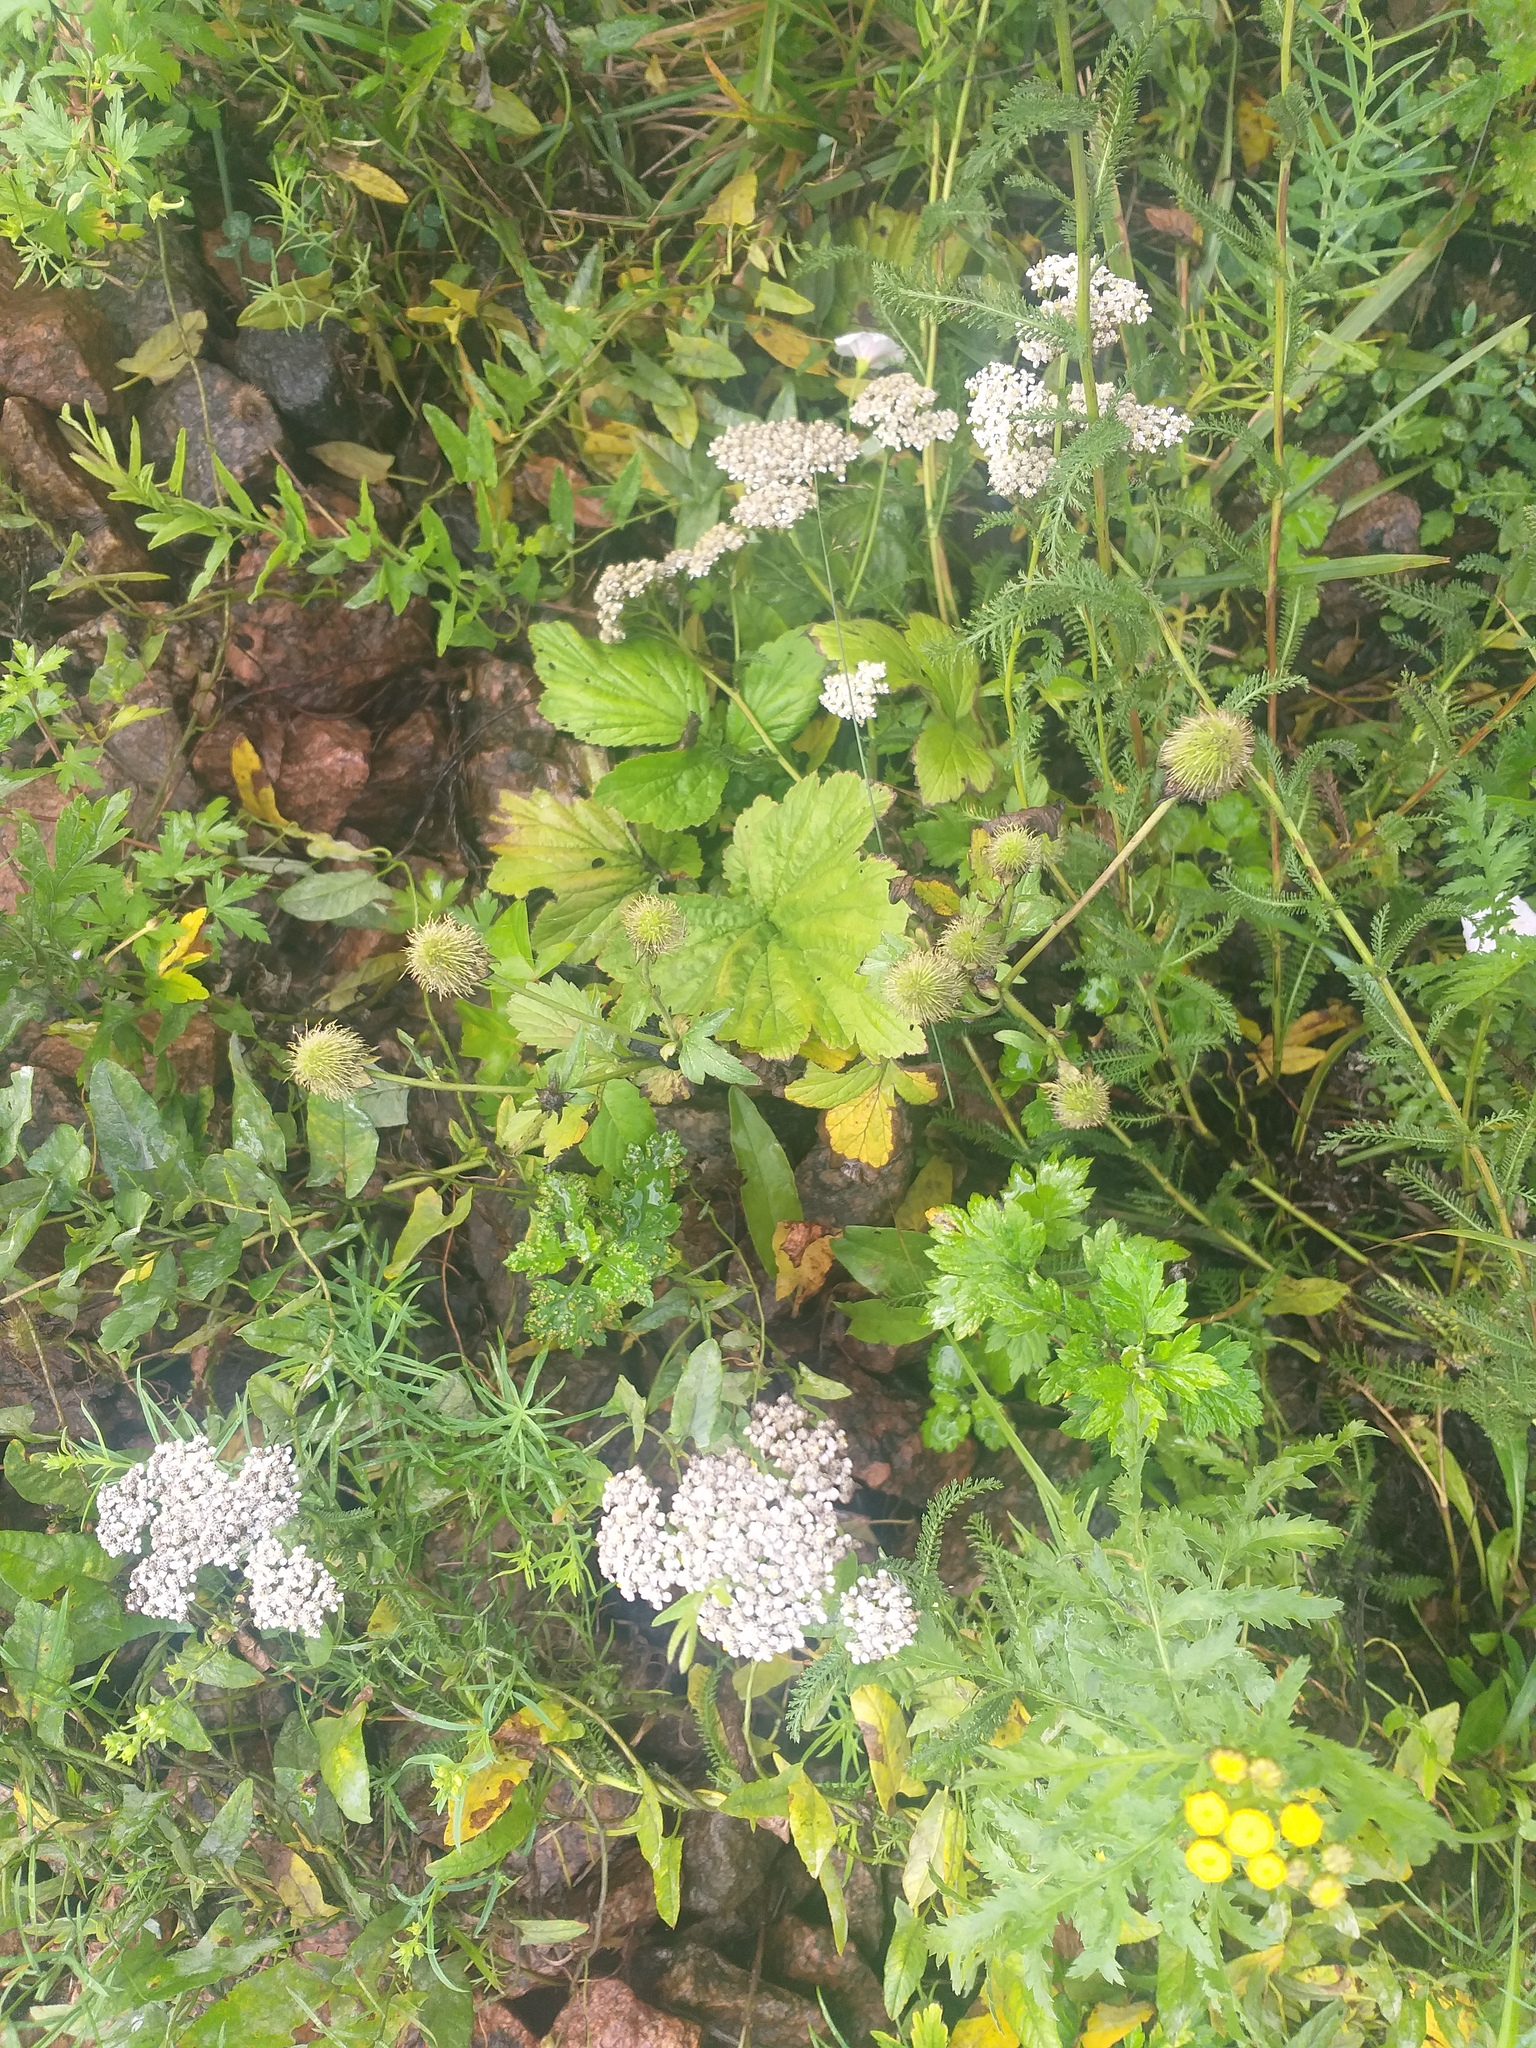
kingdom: Plantae
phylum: Tracheophyta
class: Magnoliopsida
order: Rosales
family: Rosaceae
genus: Geum
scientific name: Geum aleppicum
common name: Yellow avens
